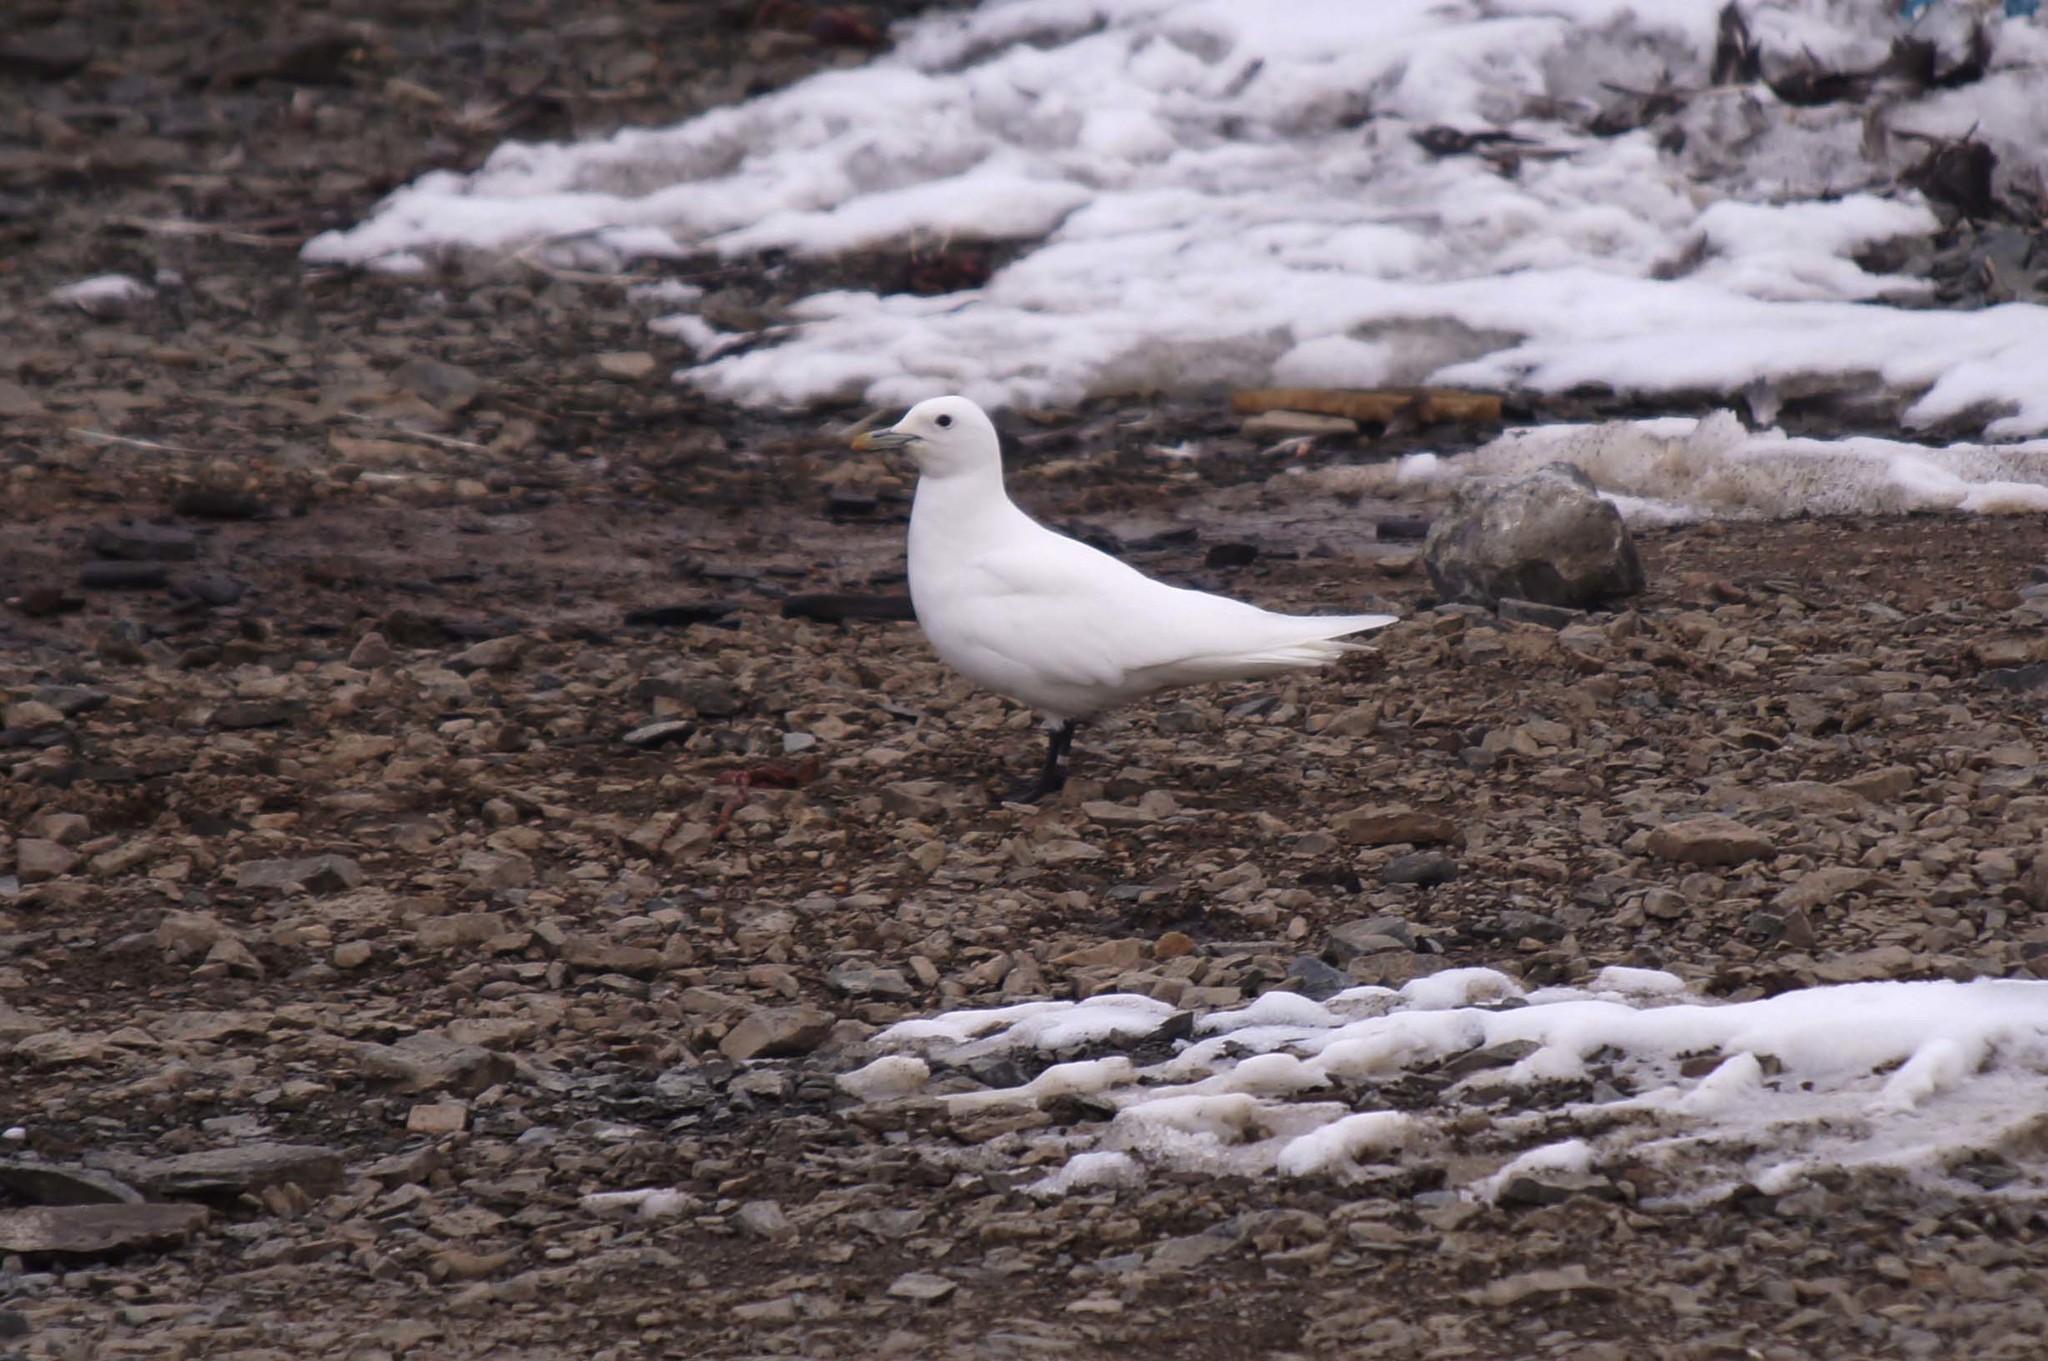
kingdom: Animalia
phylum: Chordata
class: Aves
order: Charadriiformes
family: Laridae
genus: Pagophila
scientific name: Pagophila eburnea
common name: Ivory gull
